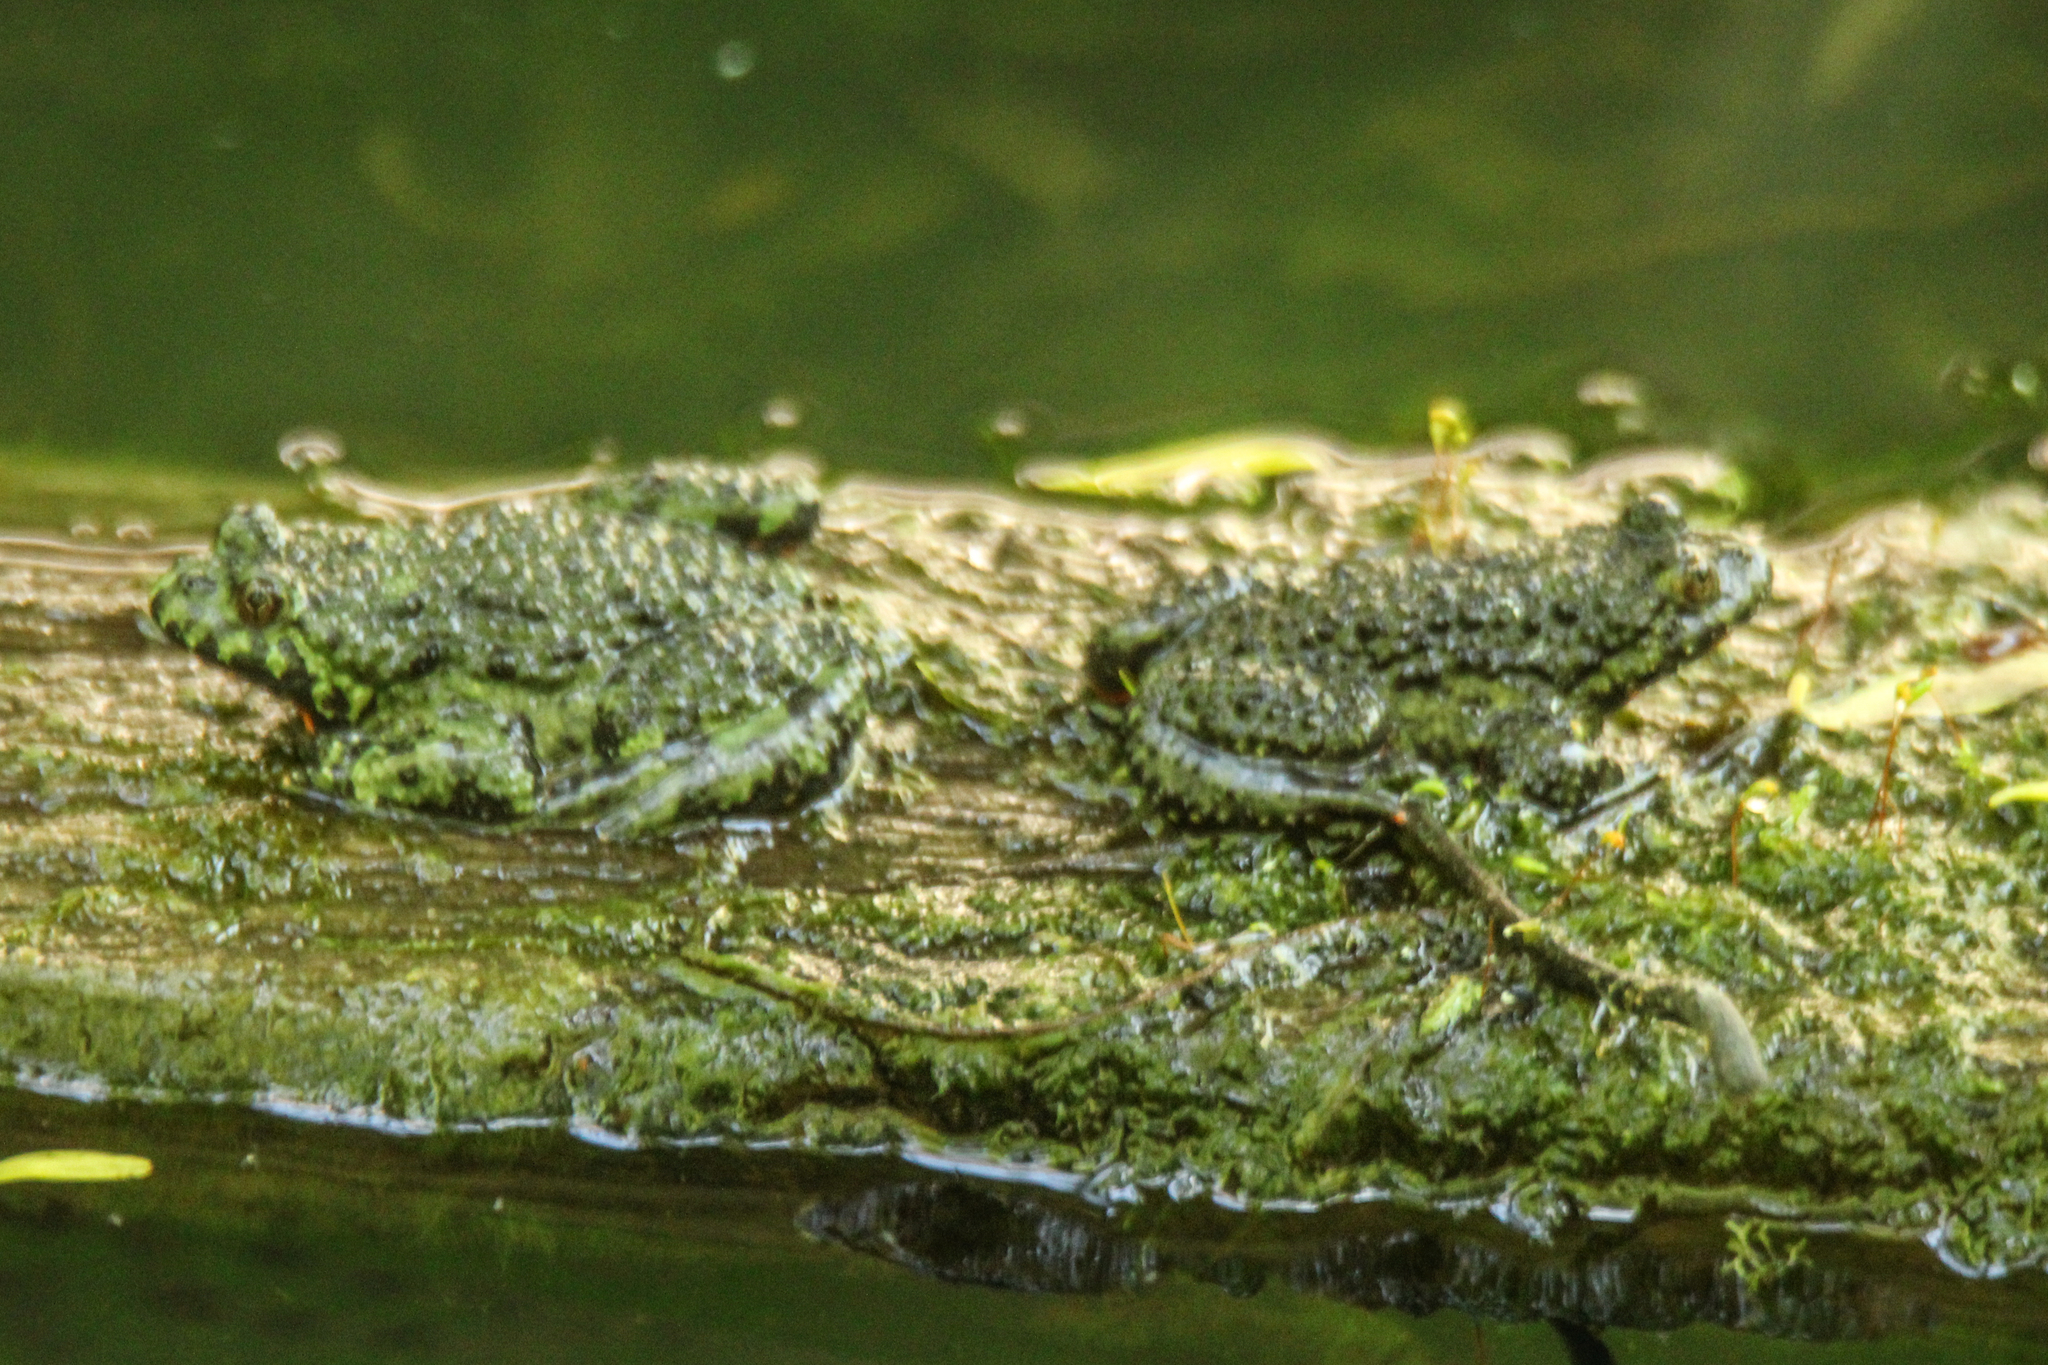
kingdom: Animalia
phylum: Chordata
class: Amphibia
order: Anura
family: Bombinatoridae
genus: Bombina
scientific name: Bombina orientalis
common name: Oriental firebelly toad
